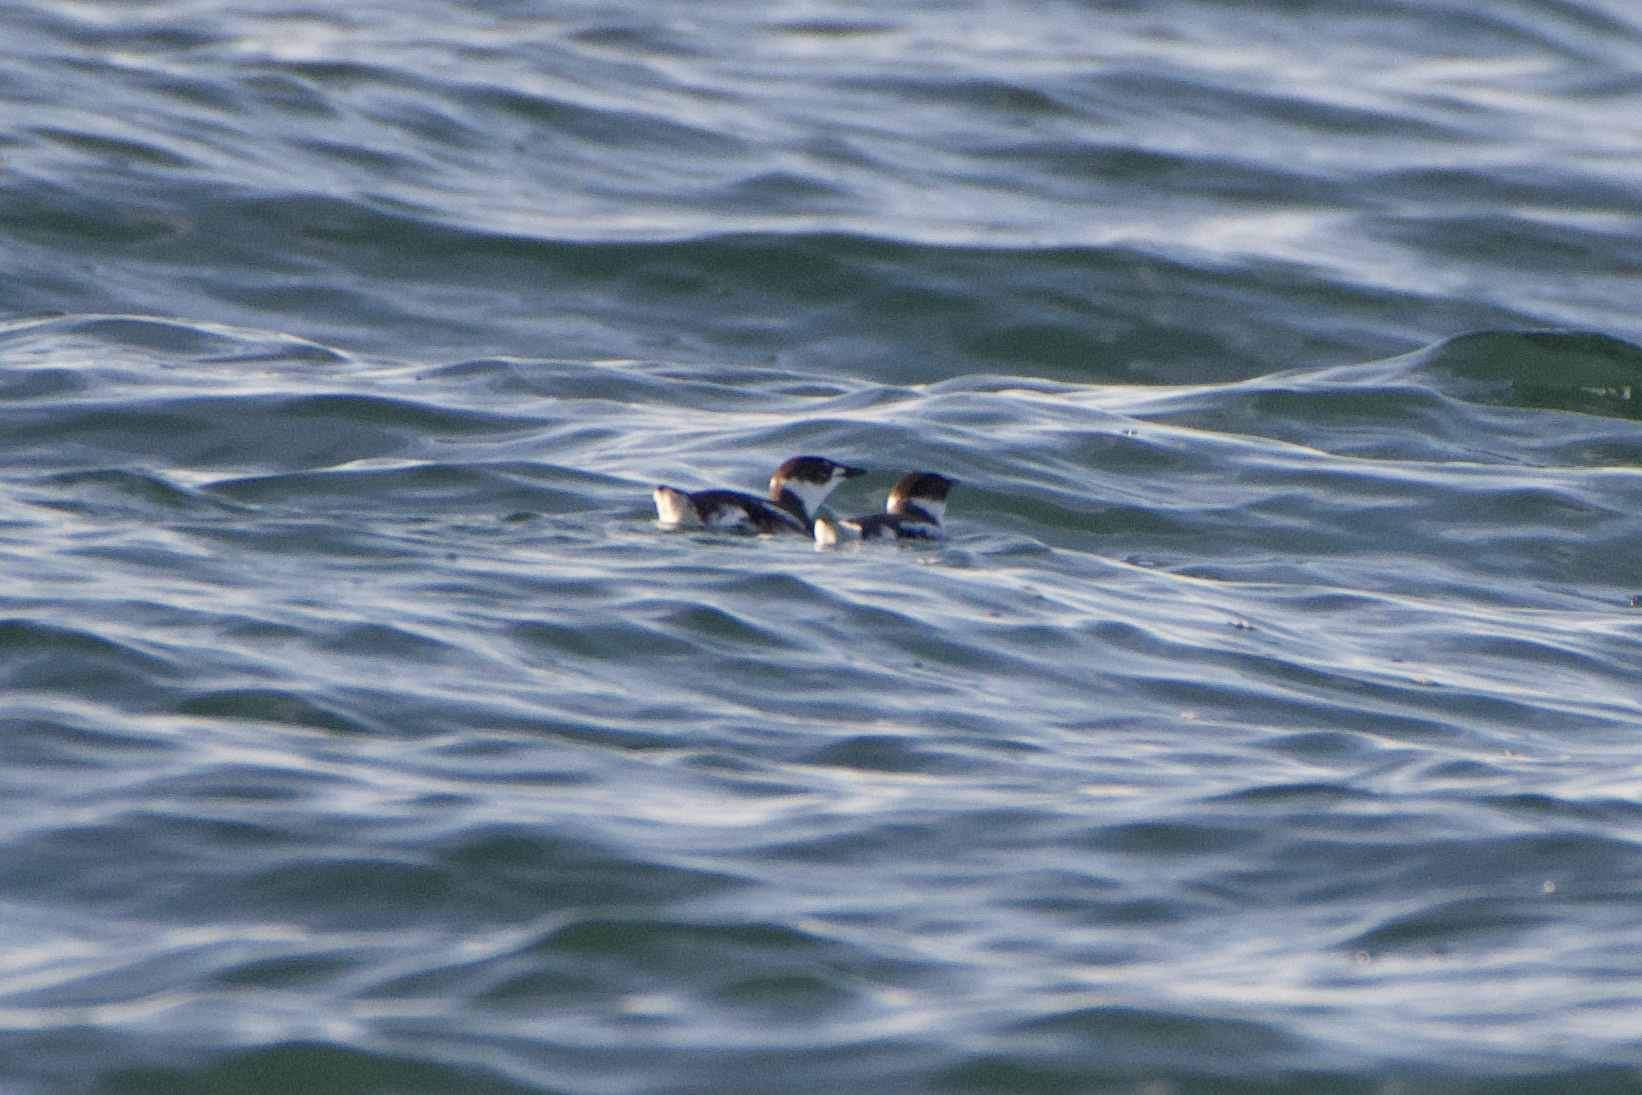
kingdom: Animalia
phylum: Chordata
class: Aves
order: Charadriiformes
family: Alcidae
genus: Brachyramphus
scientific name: Brachyramphus marmoratus
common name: Marbled murrelet
